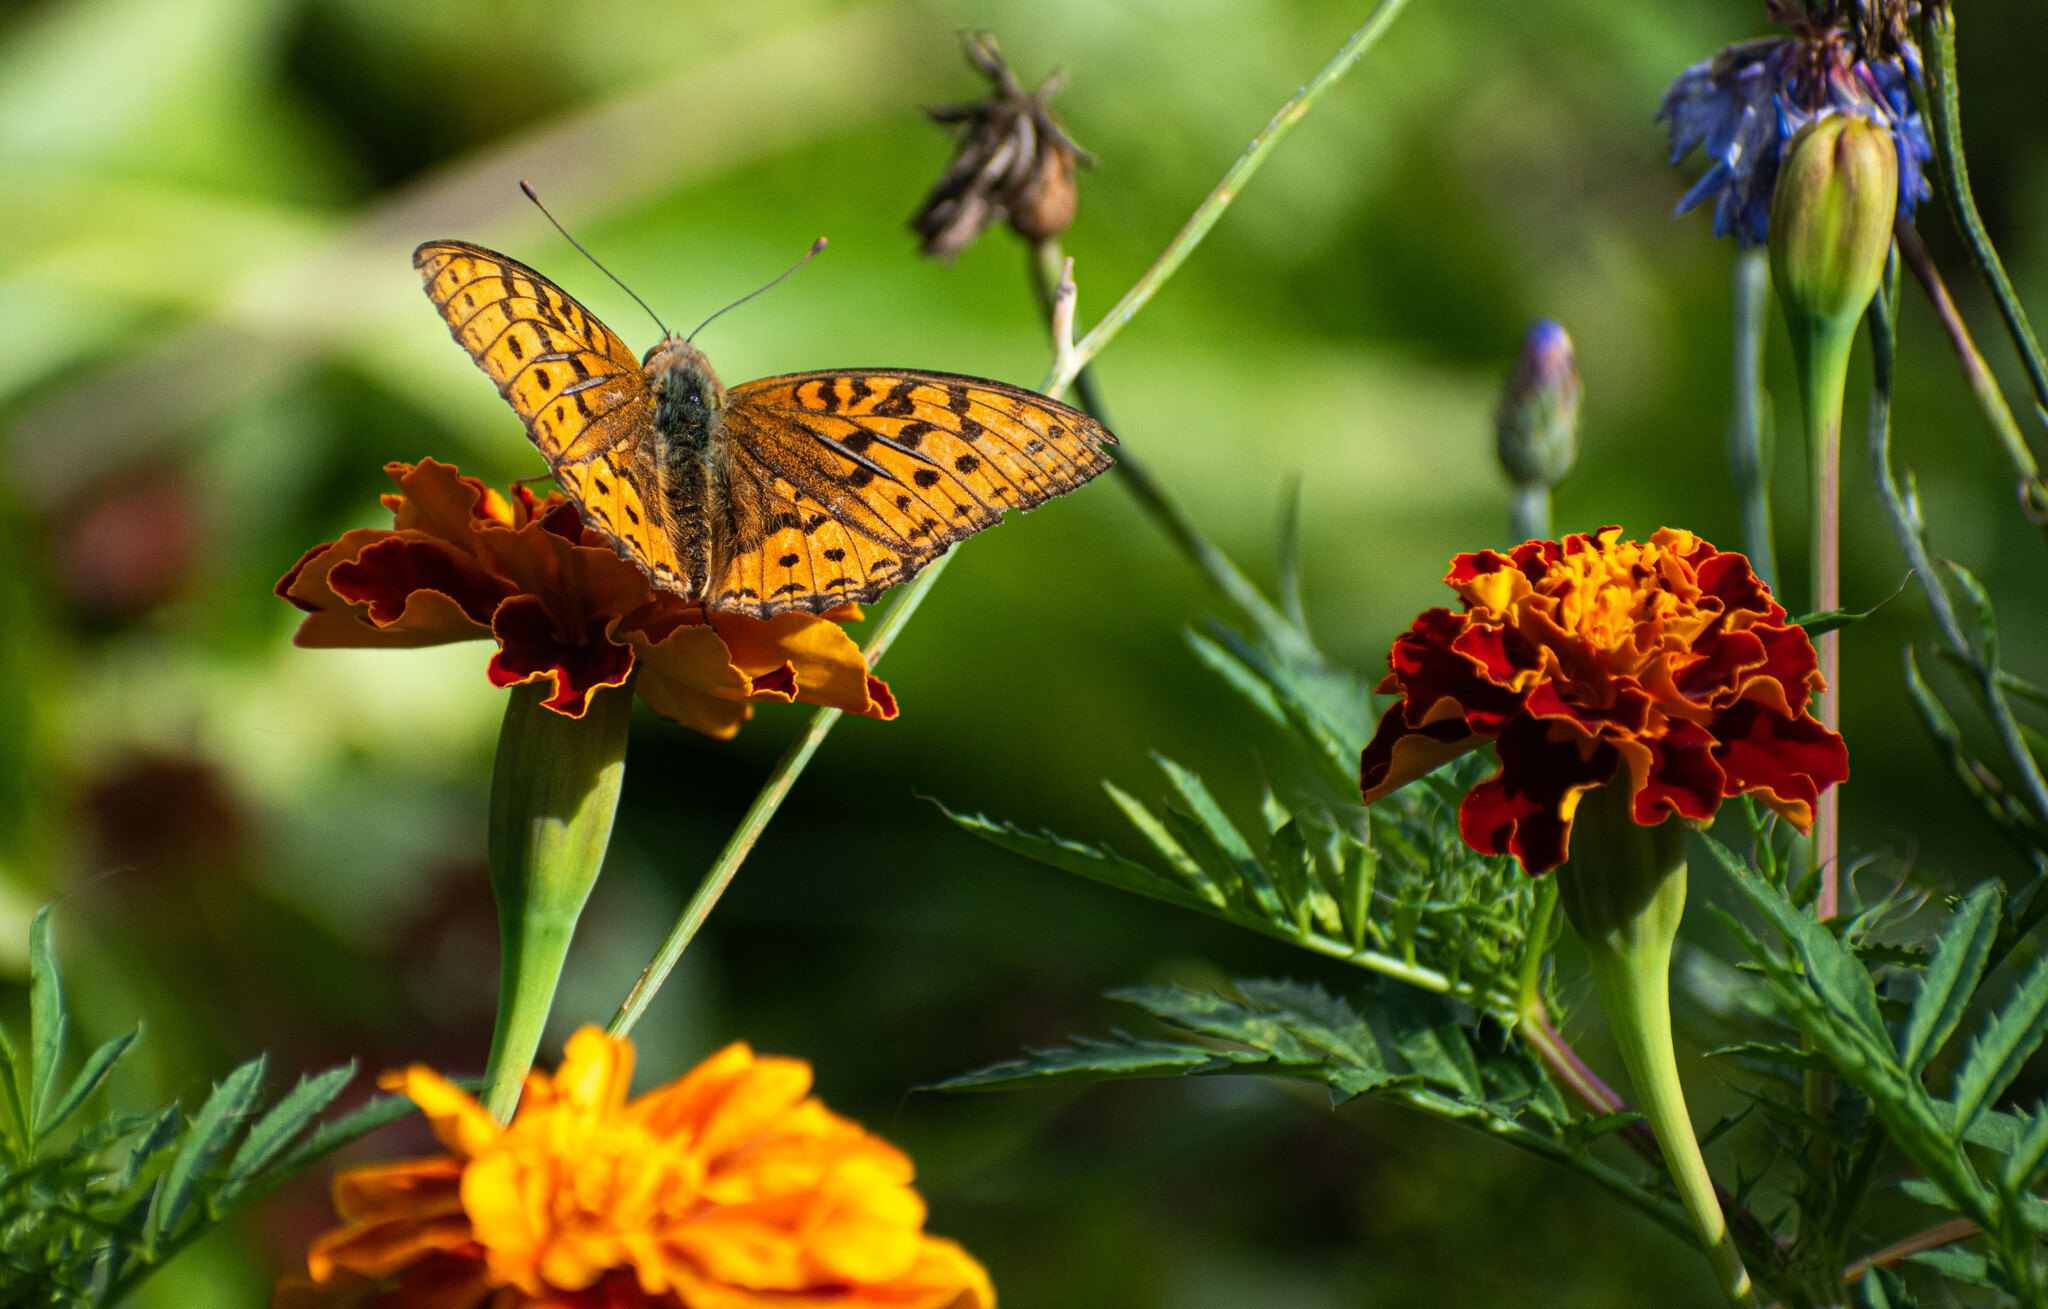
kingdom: Animalia
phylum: Arthropoda
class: Insecta
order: Lepidoptera
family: Nymphalidae
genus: Fabriciana
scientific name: Fabriciana adippe
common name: High brown fritillary
